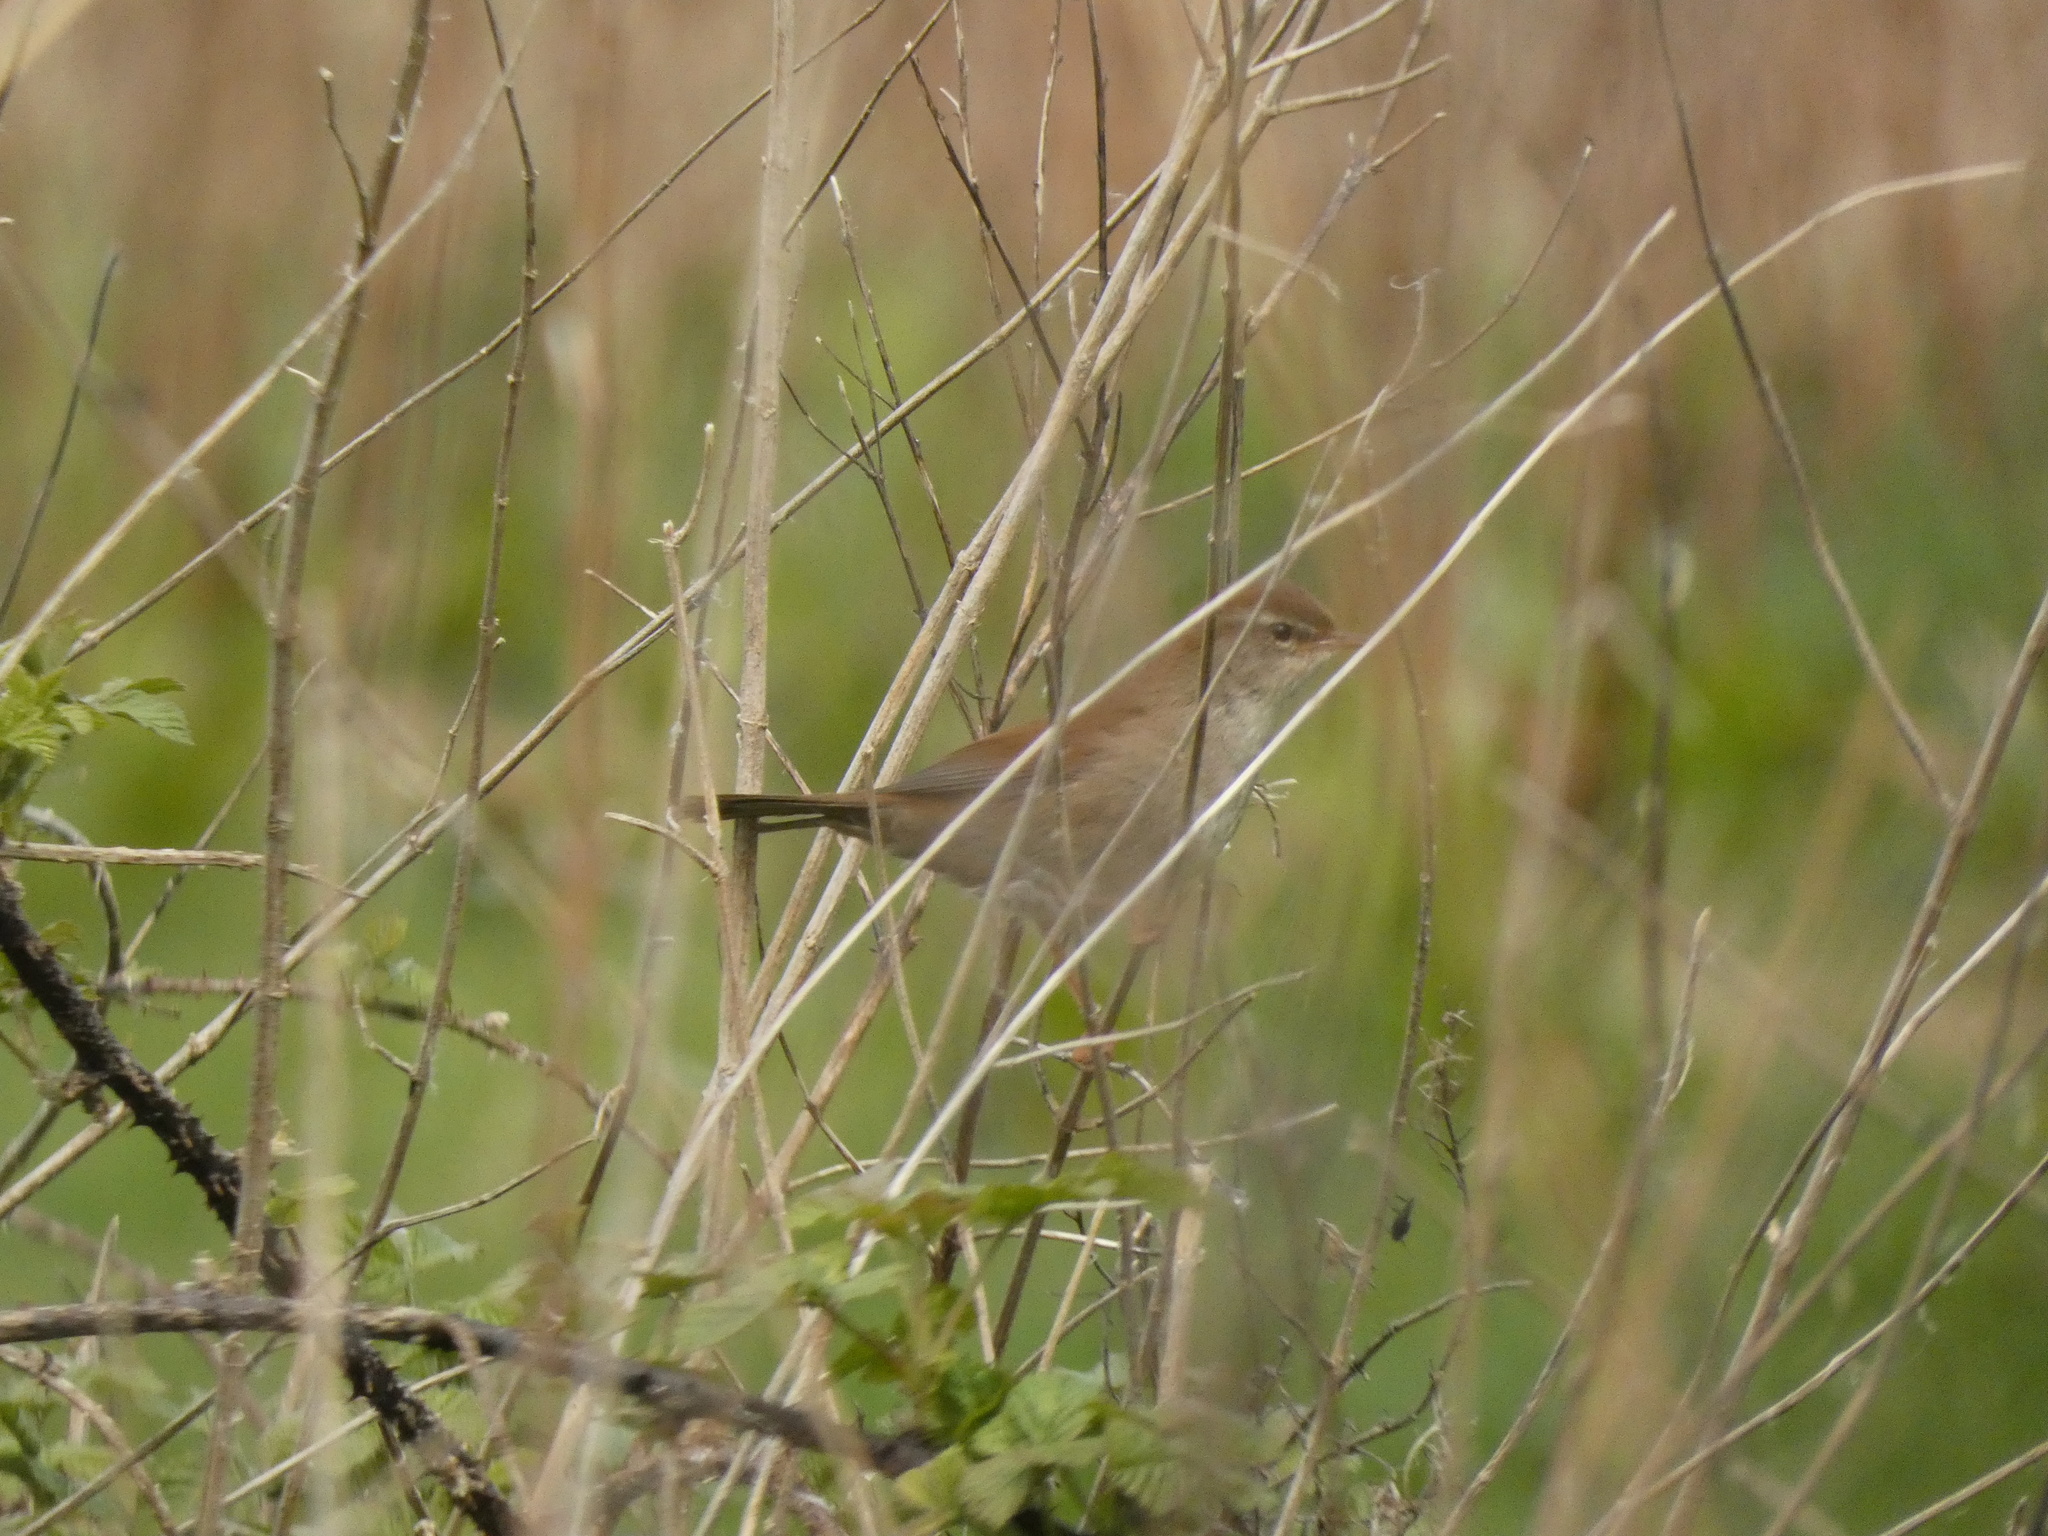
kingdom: Animalia
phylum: Chordata
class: Aves
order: Passeriformes
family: Cettiidae
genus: Cettia
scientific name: Cettia cetti
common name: Cetti's warbler
